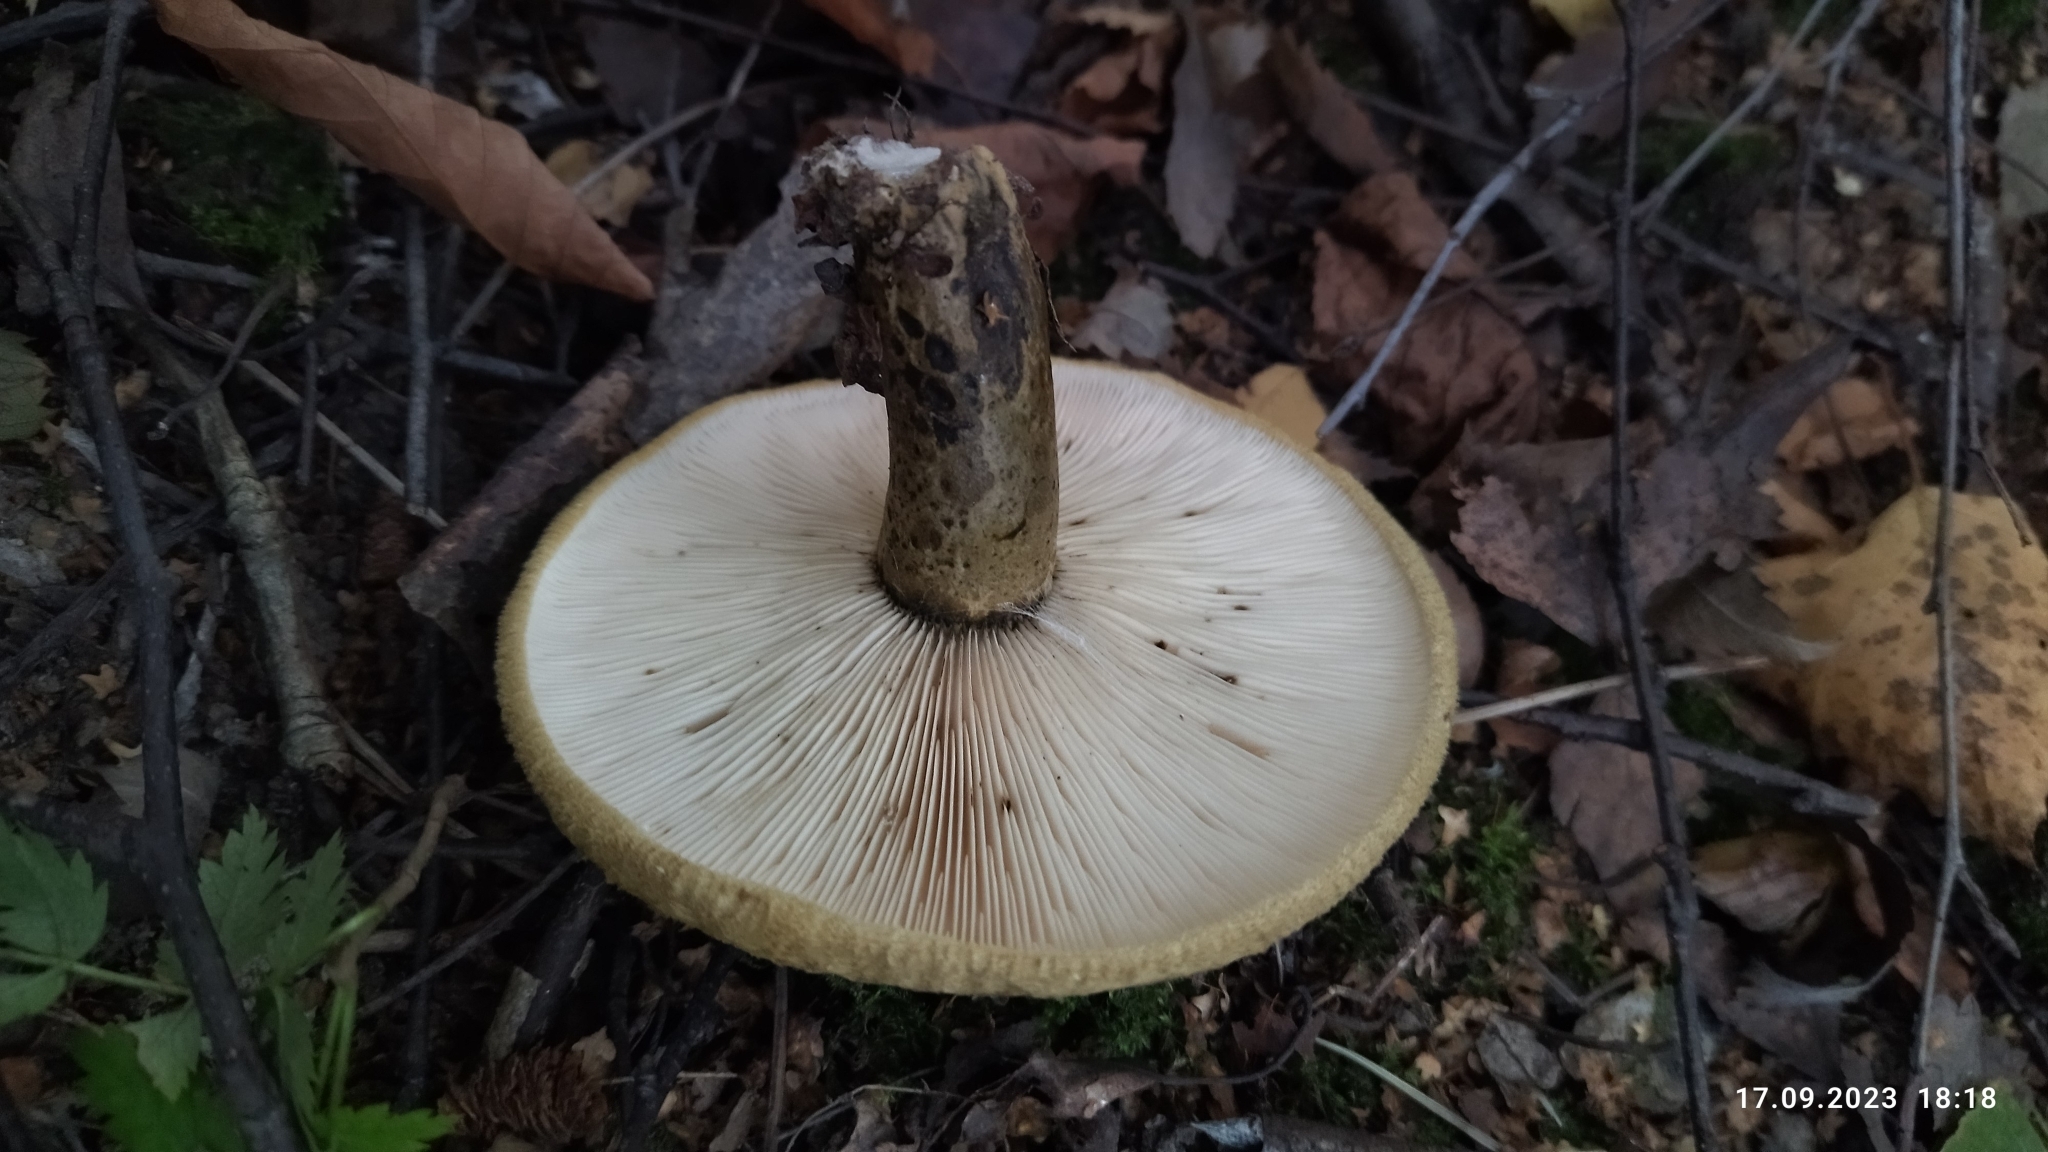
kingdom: Fungi
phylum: Basidiomycota
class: Agaricomycetes
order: Russulales
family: Russulaceae
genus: Lactarius
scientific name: Lactarius turpis
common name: Ugly milk-cap
